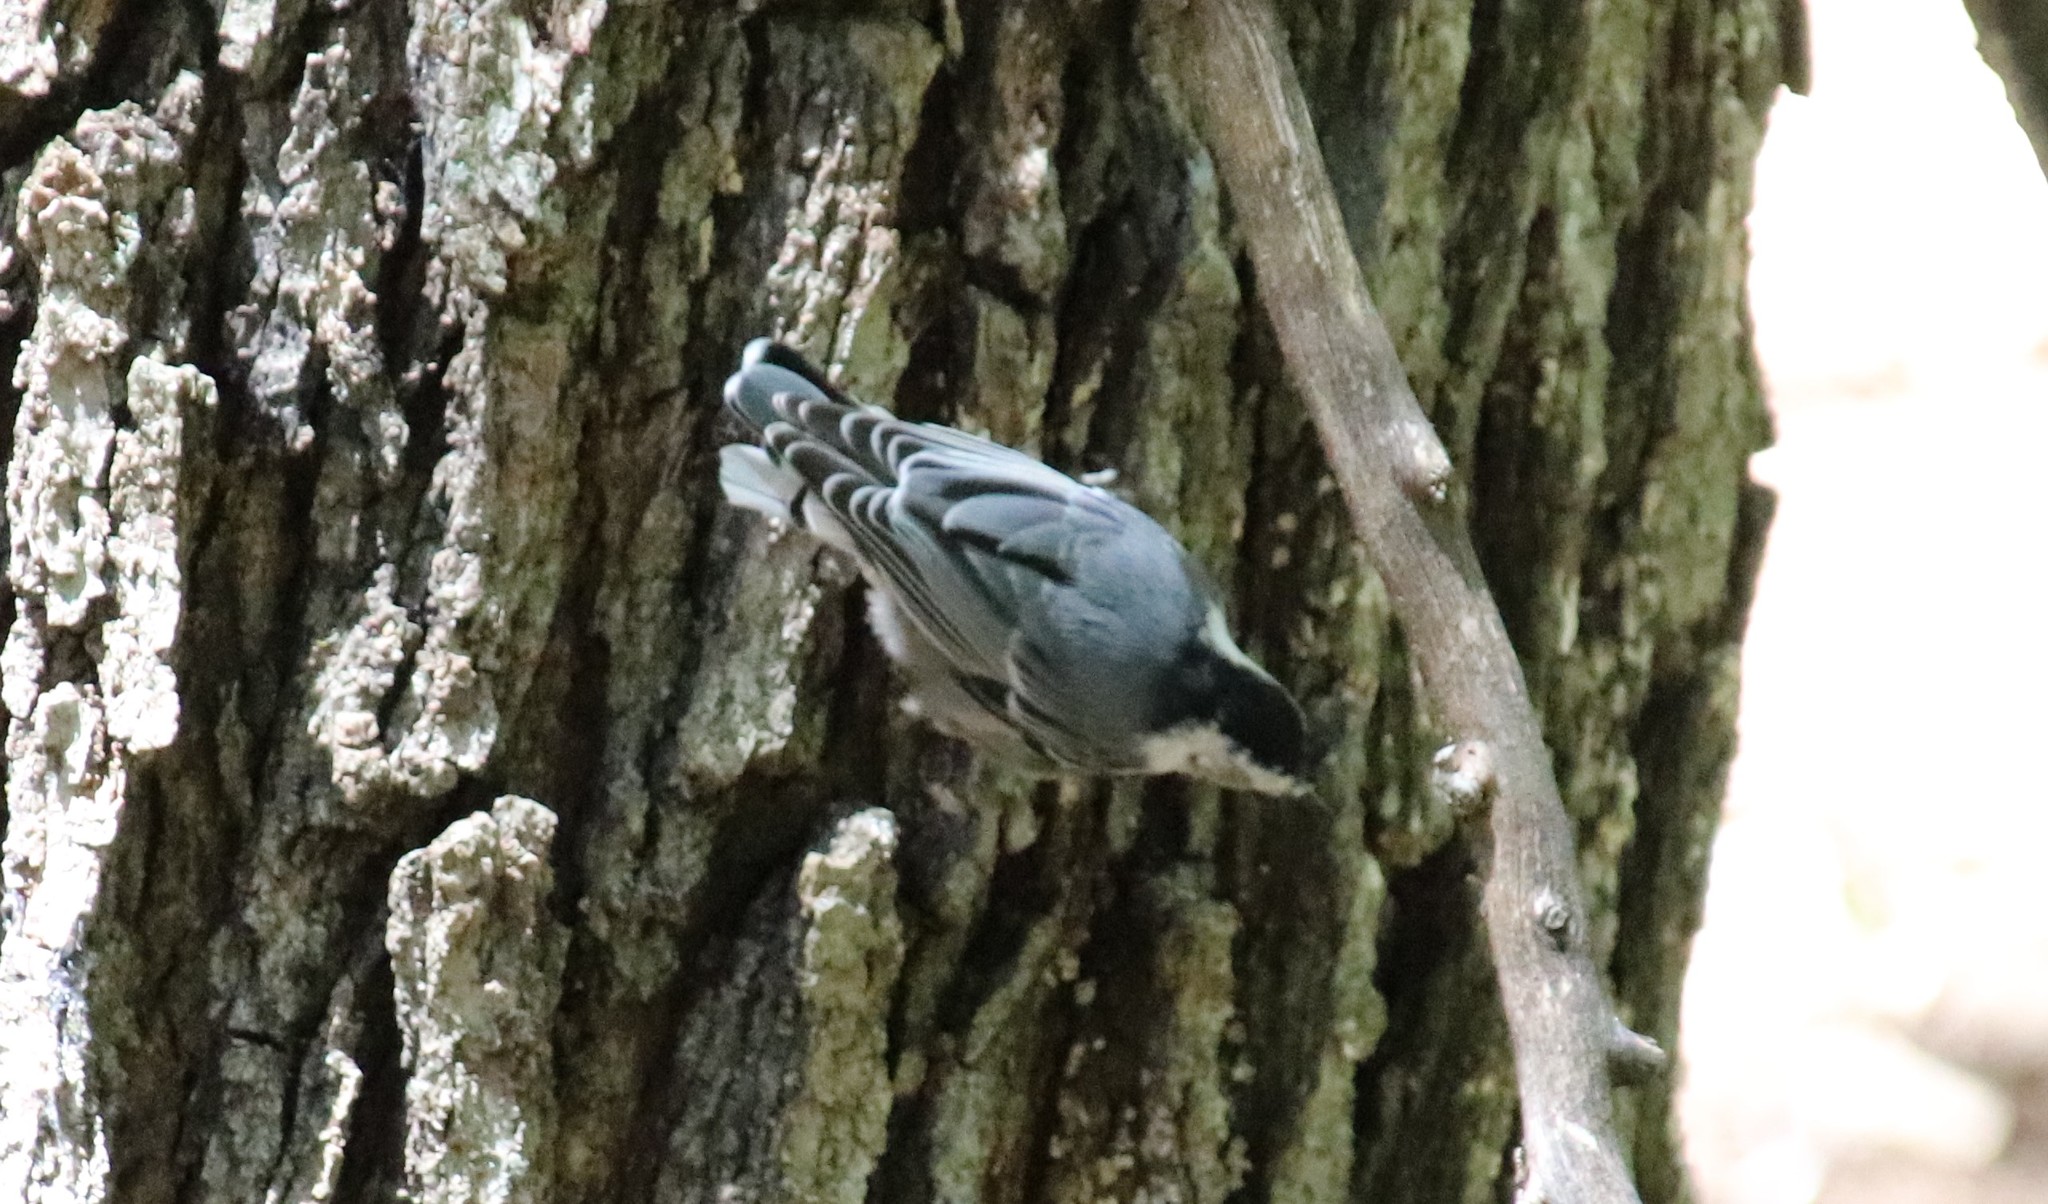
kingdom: Animalia
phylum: Chordata
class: Aves
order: Passeriformes
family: Sittidae
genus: Sitta
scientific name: Sitta carolinensis
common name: White-breasted nuthatch
